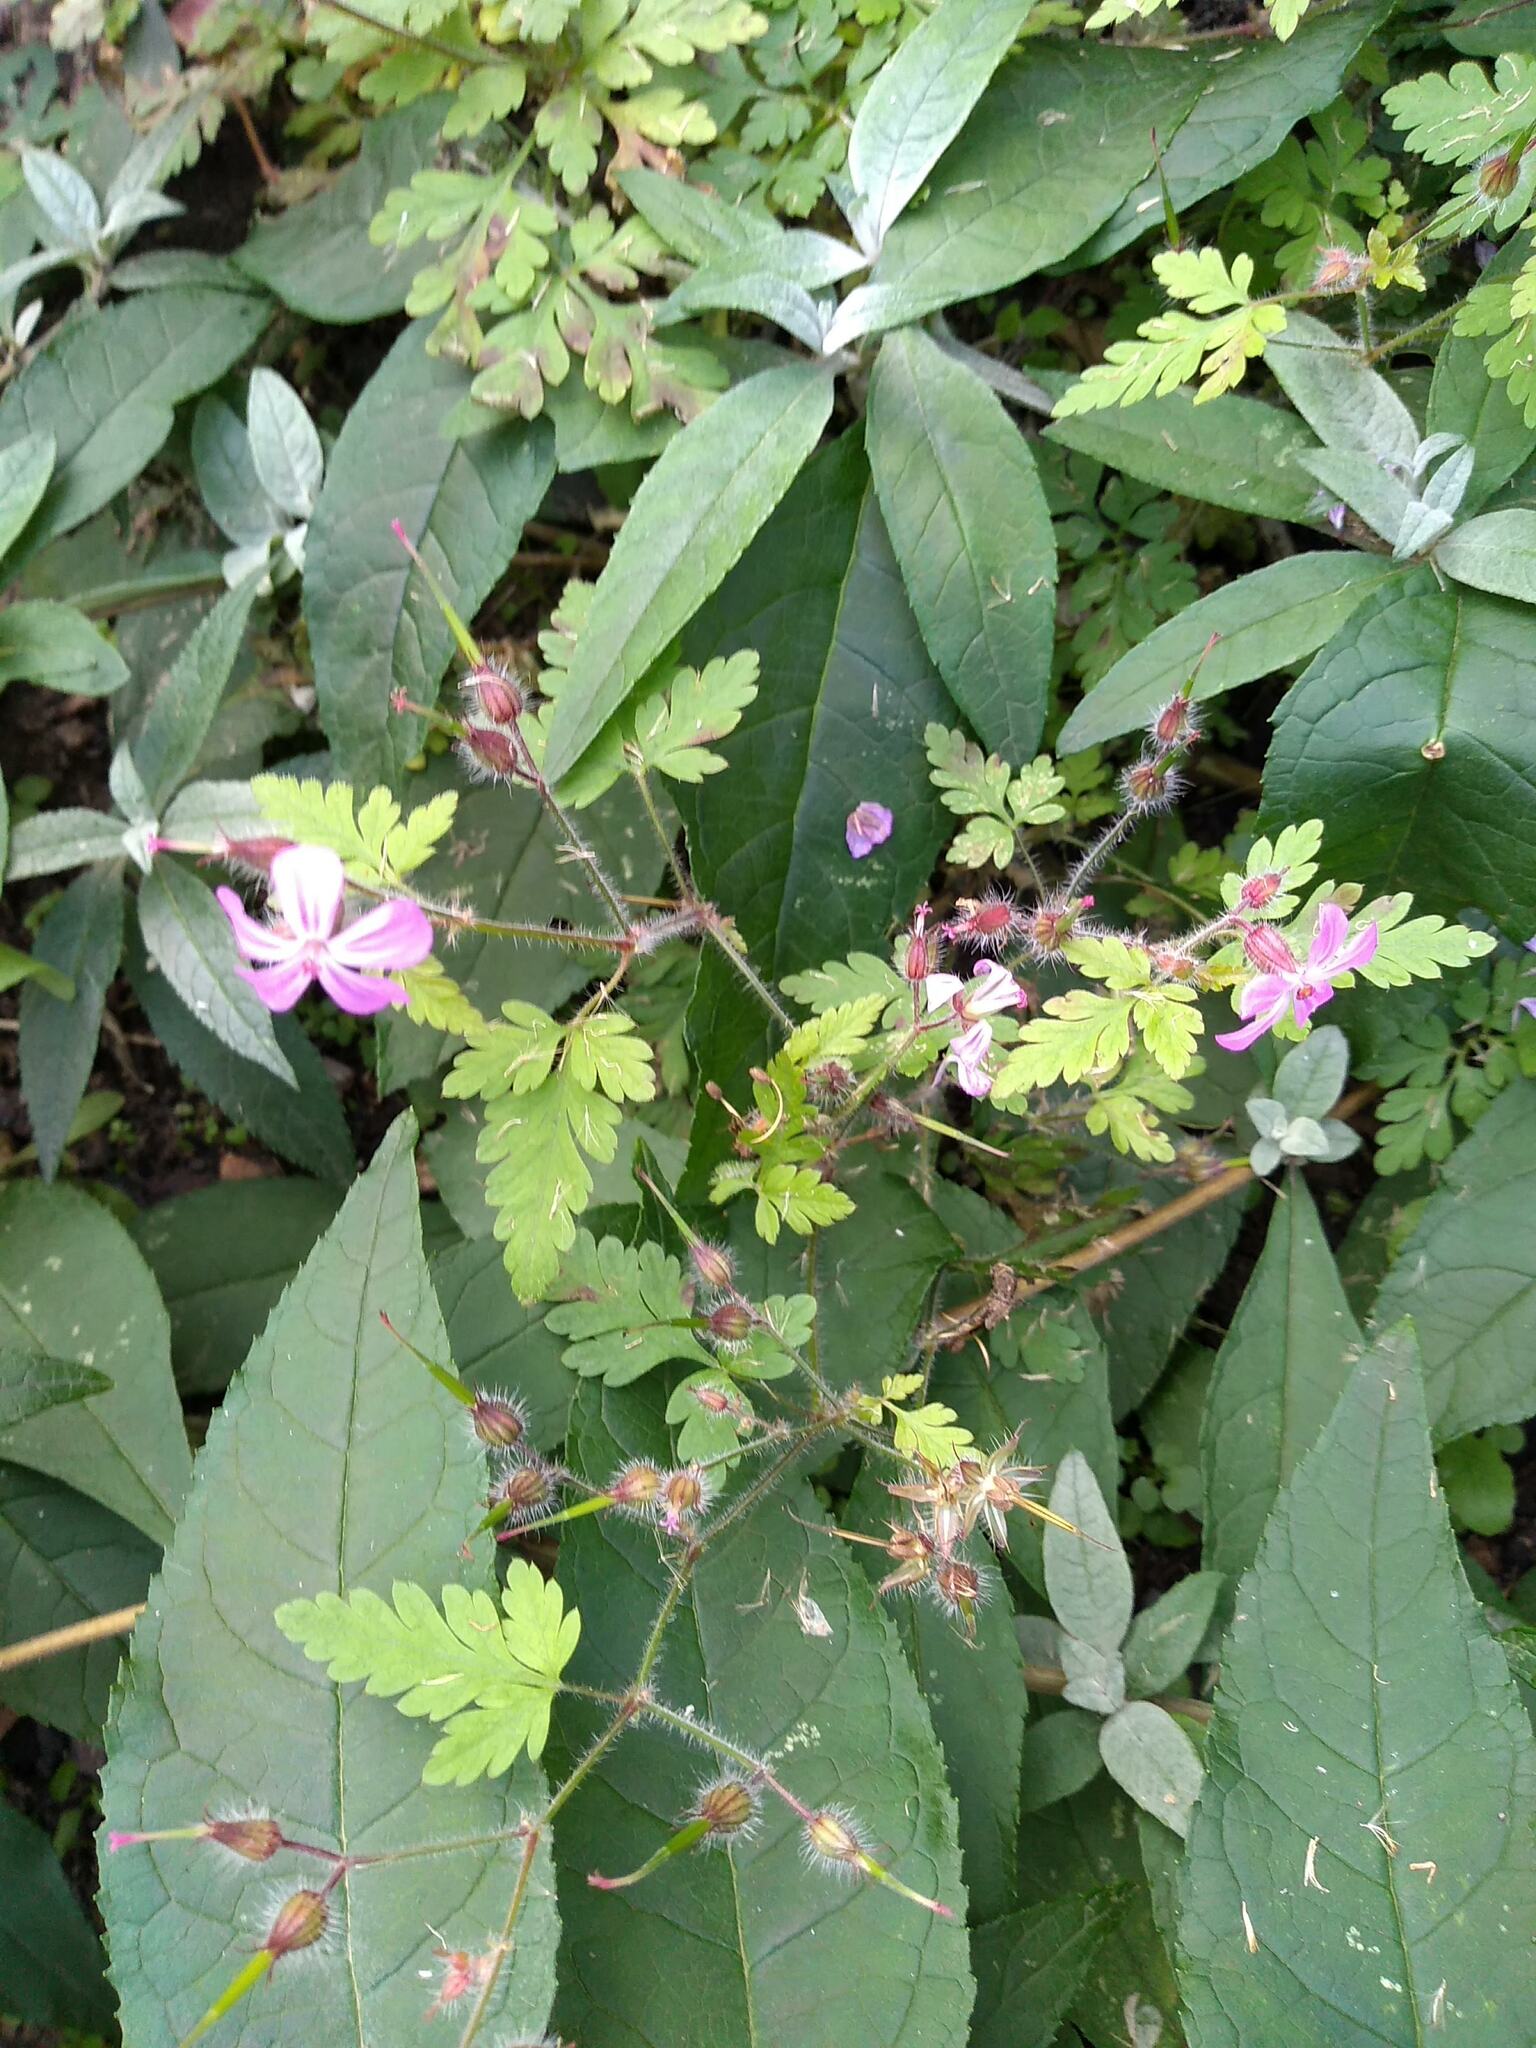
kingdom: Plantae
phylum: Tracheophyta
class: Magnoliopsida
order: Geraniales
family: Geraniaceae
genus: Geranium
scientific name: Geranium robertianum
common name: Herb-robert
